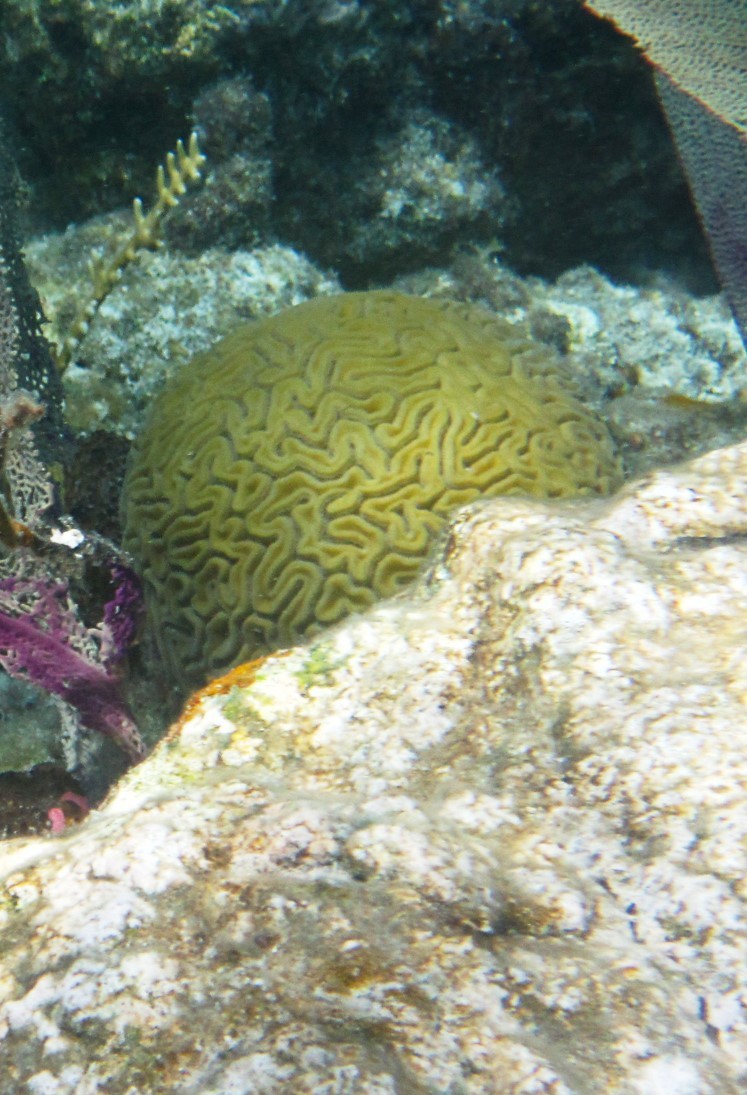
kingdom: Animalia
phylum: Cnidaria
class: Anthozoa
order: Scleractinia
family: Faviidae
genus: Diploria
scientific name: Diploria labyrinthiformis
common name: Grooved brain coral
